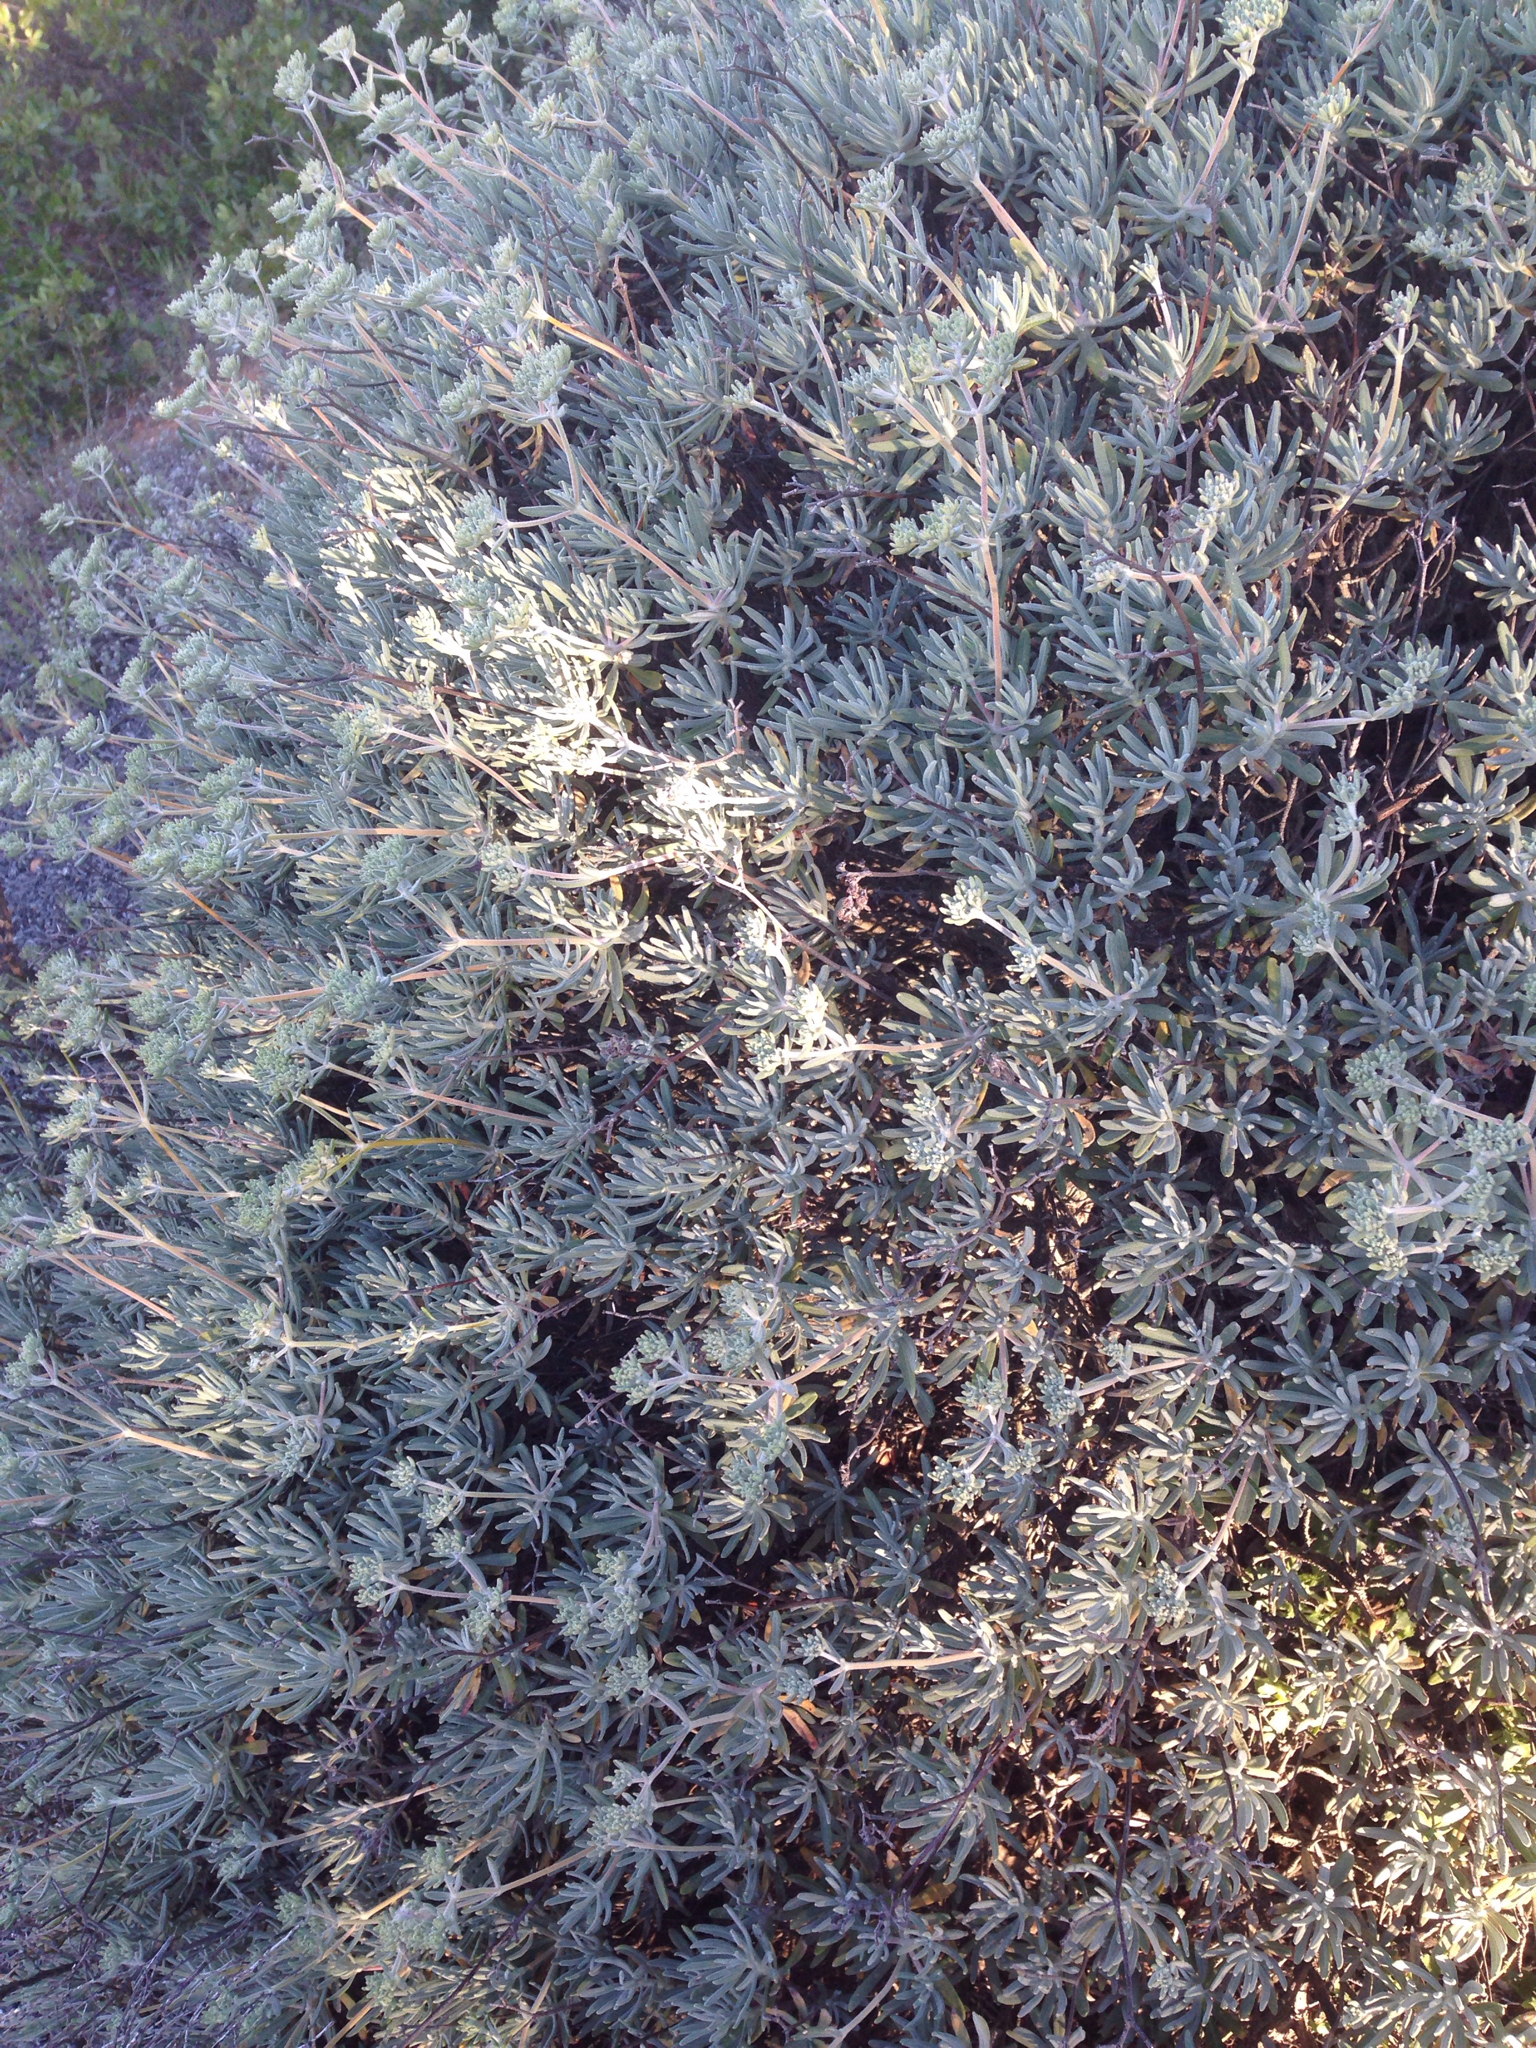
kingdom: Plantae
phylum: Tracheophyta
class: Magnoliopsida
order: Caryophyllales
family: Polygonaceae
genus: Eriogonum
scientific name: Eriogonum arborescens
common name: Island buckwheat
